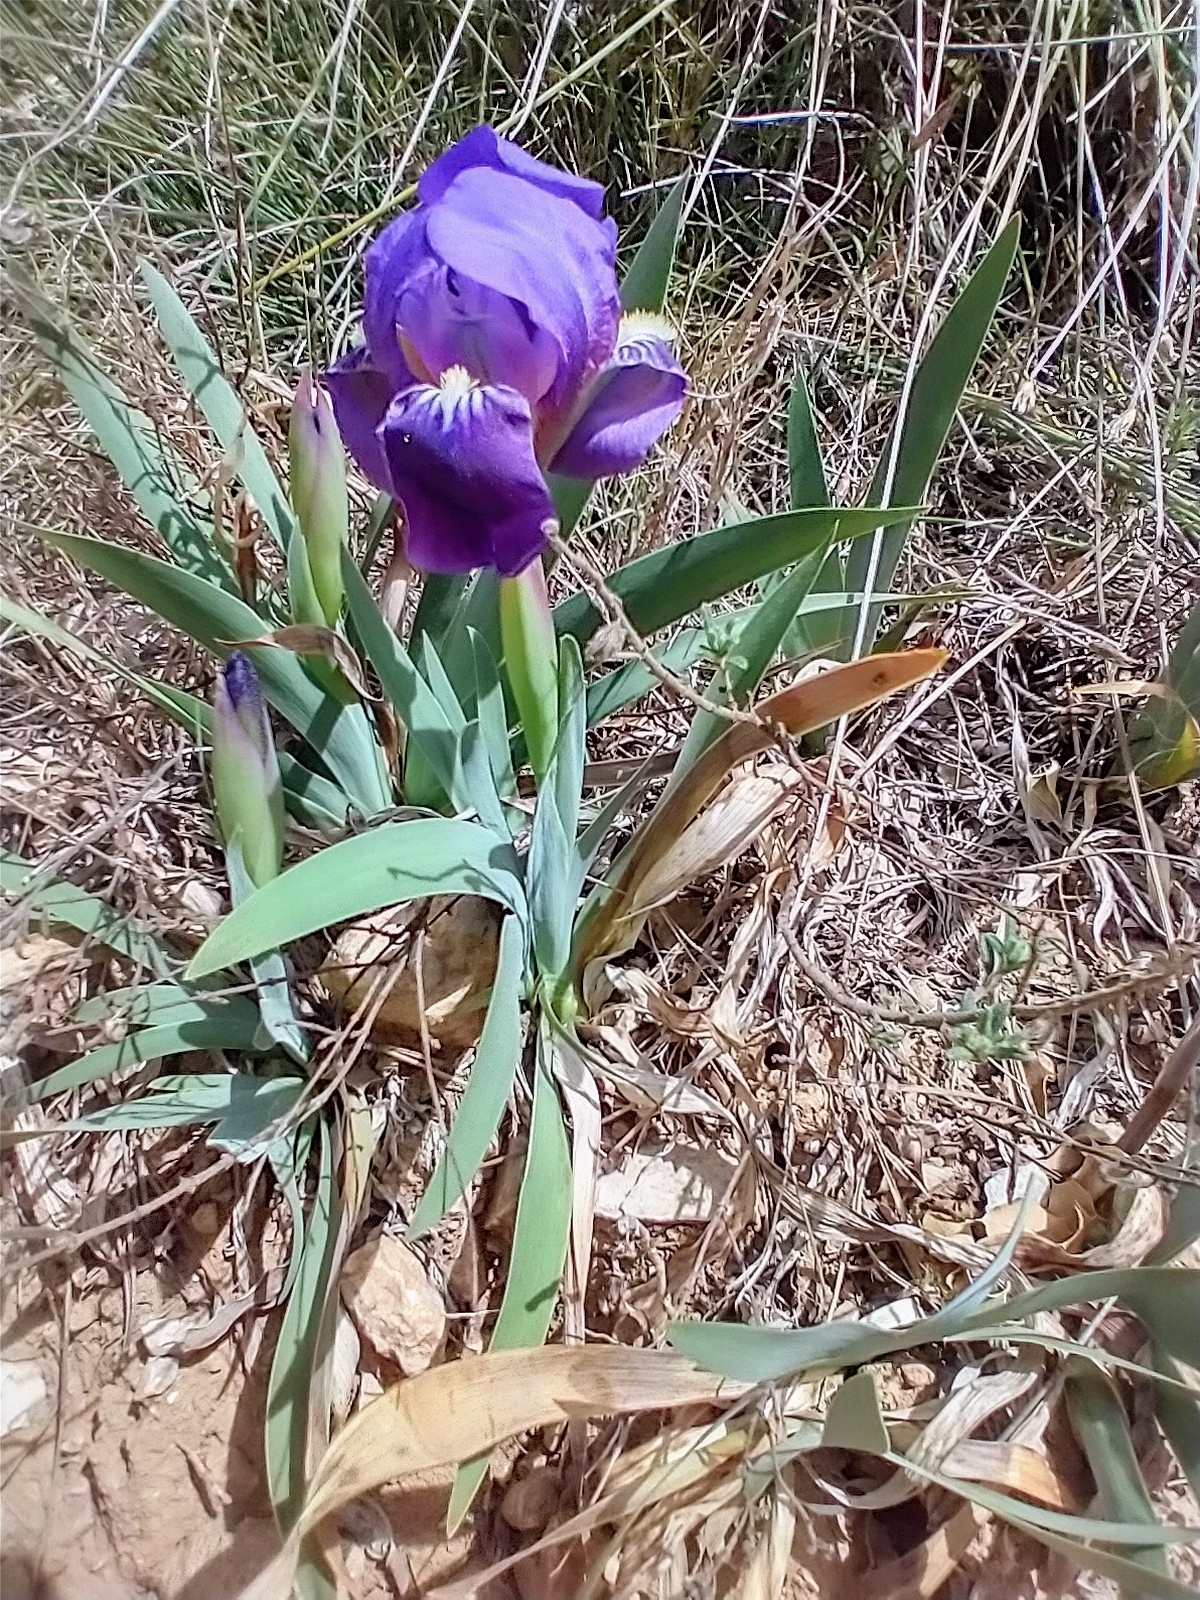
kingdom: Plantae
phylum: Tracheophyta
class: Liliopsida
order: Asparagales
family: Iridaceae
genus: Iris
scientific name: Iris lutescens
